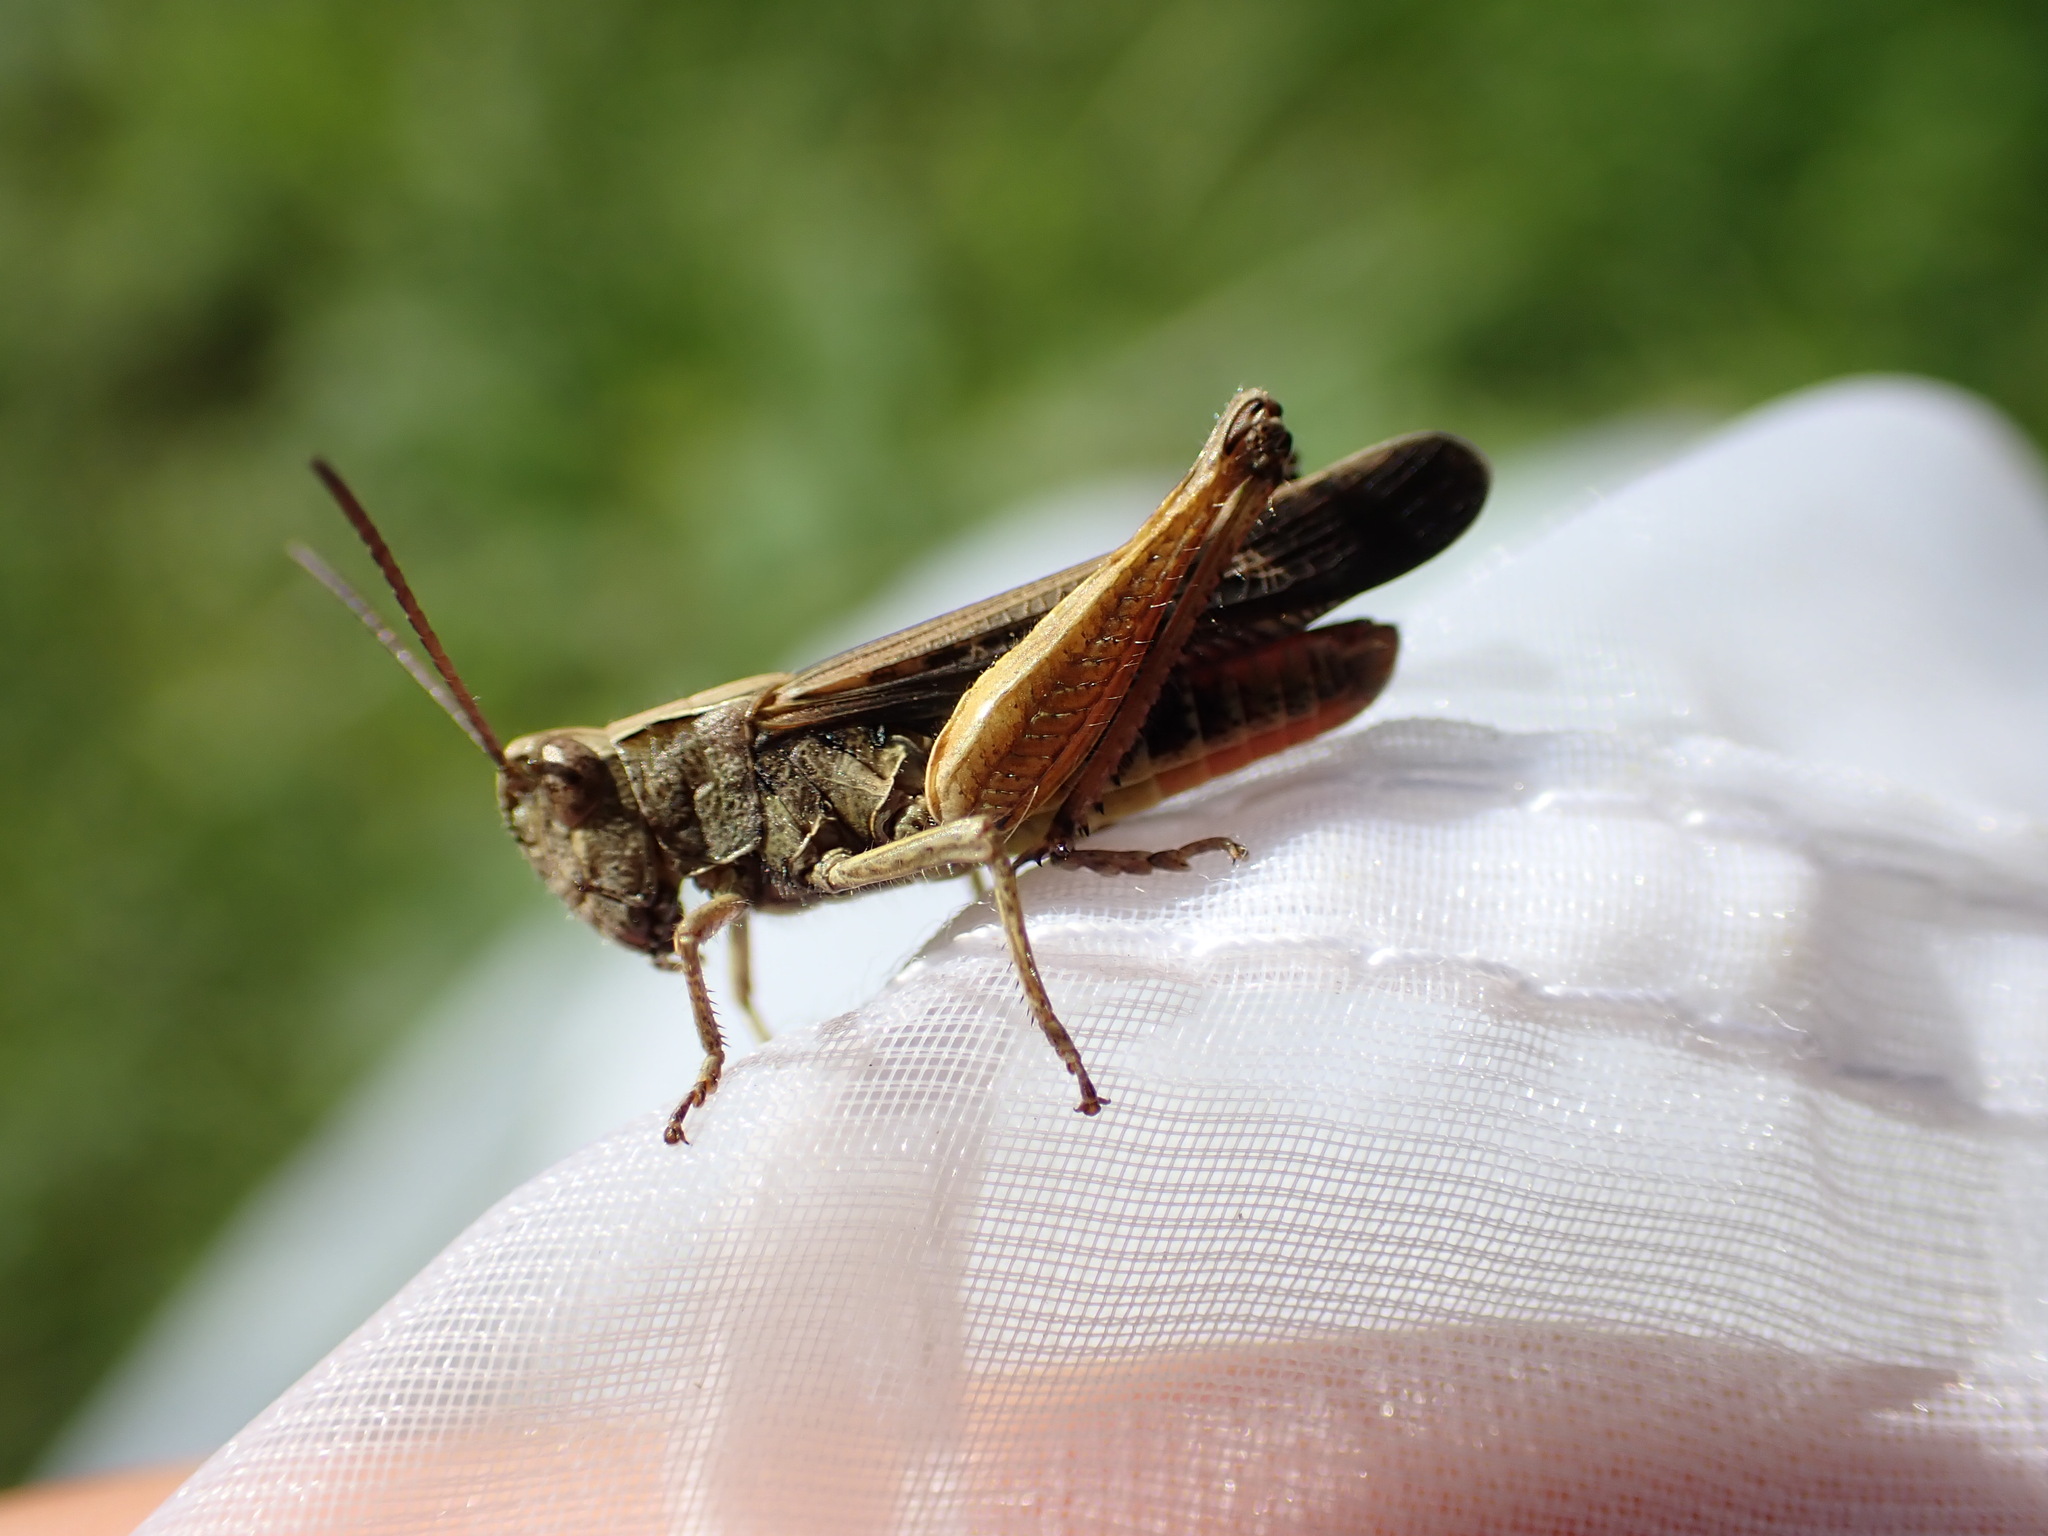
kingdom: Animalia
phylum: Arthropoda
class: Insecta
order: Orthoptera
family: Acrididae
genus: Omocestus
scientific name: Omocestus rufipes
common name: Woodland grasshopper
